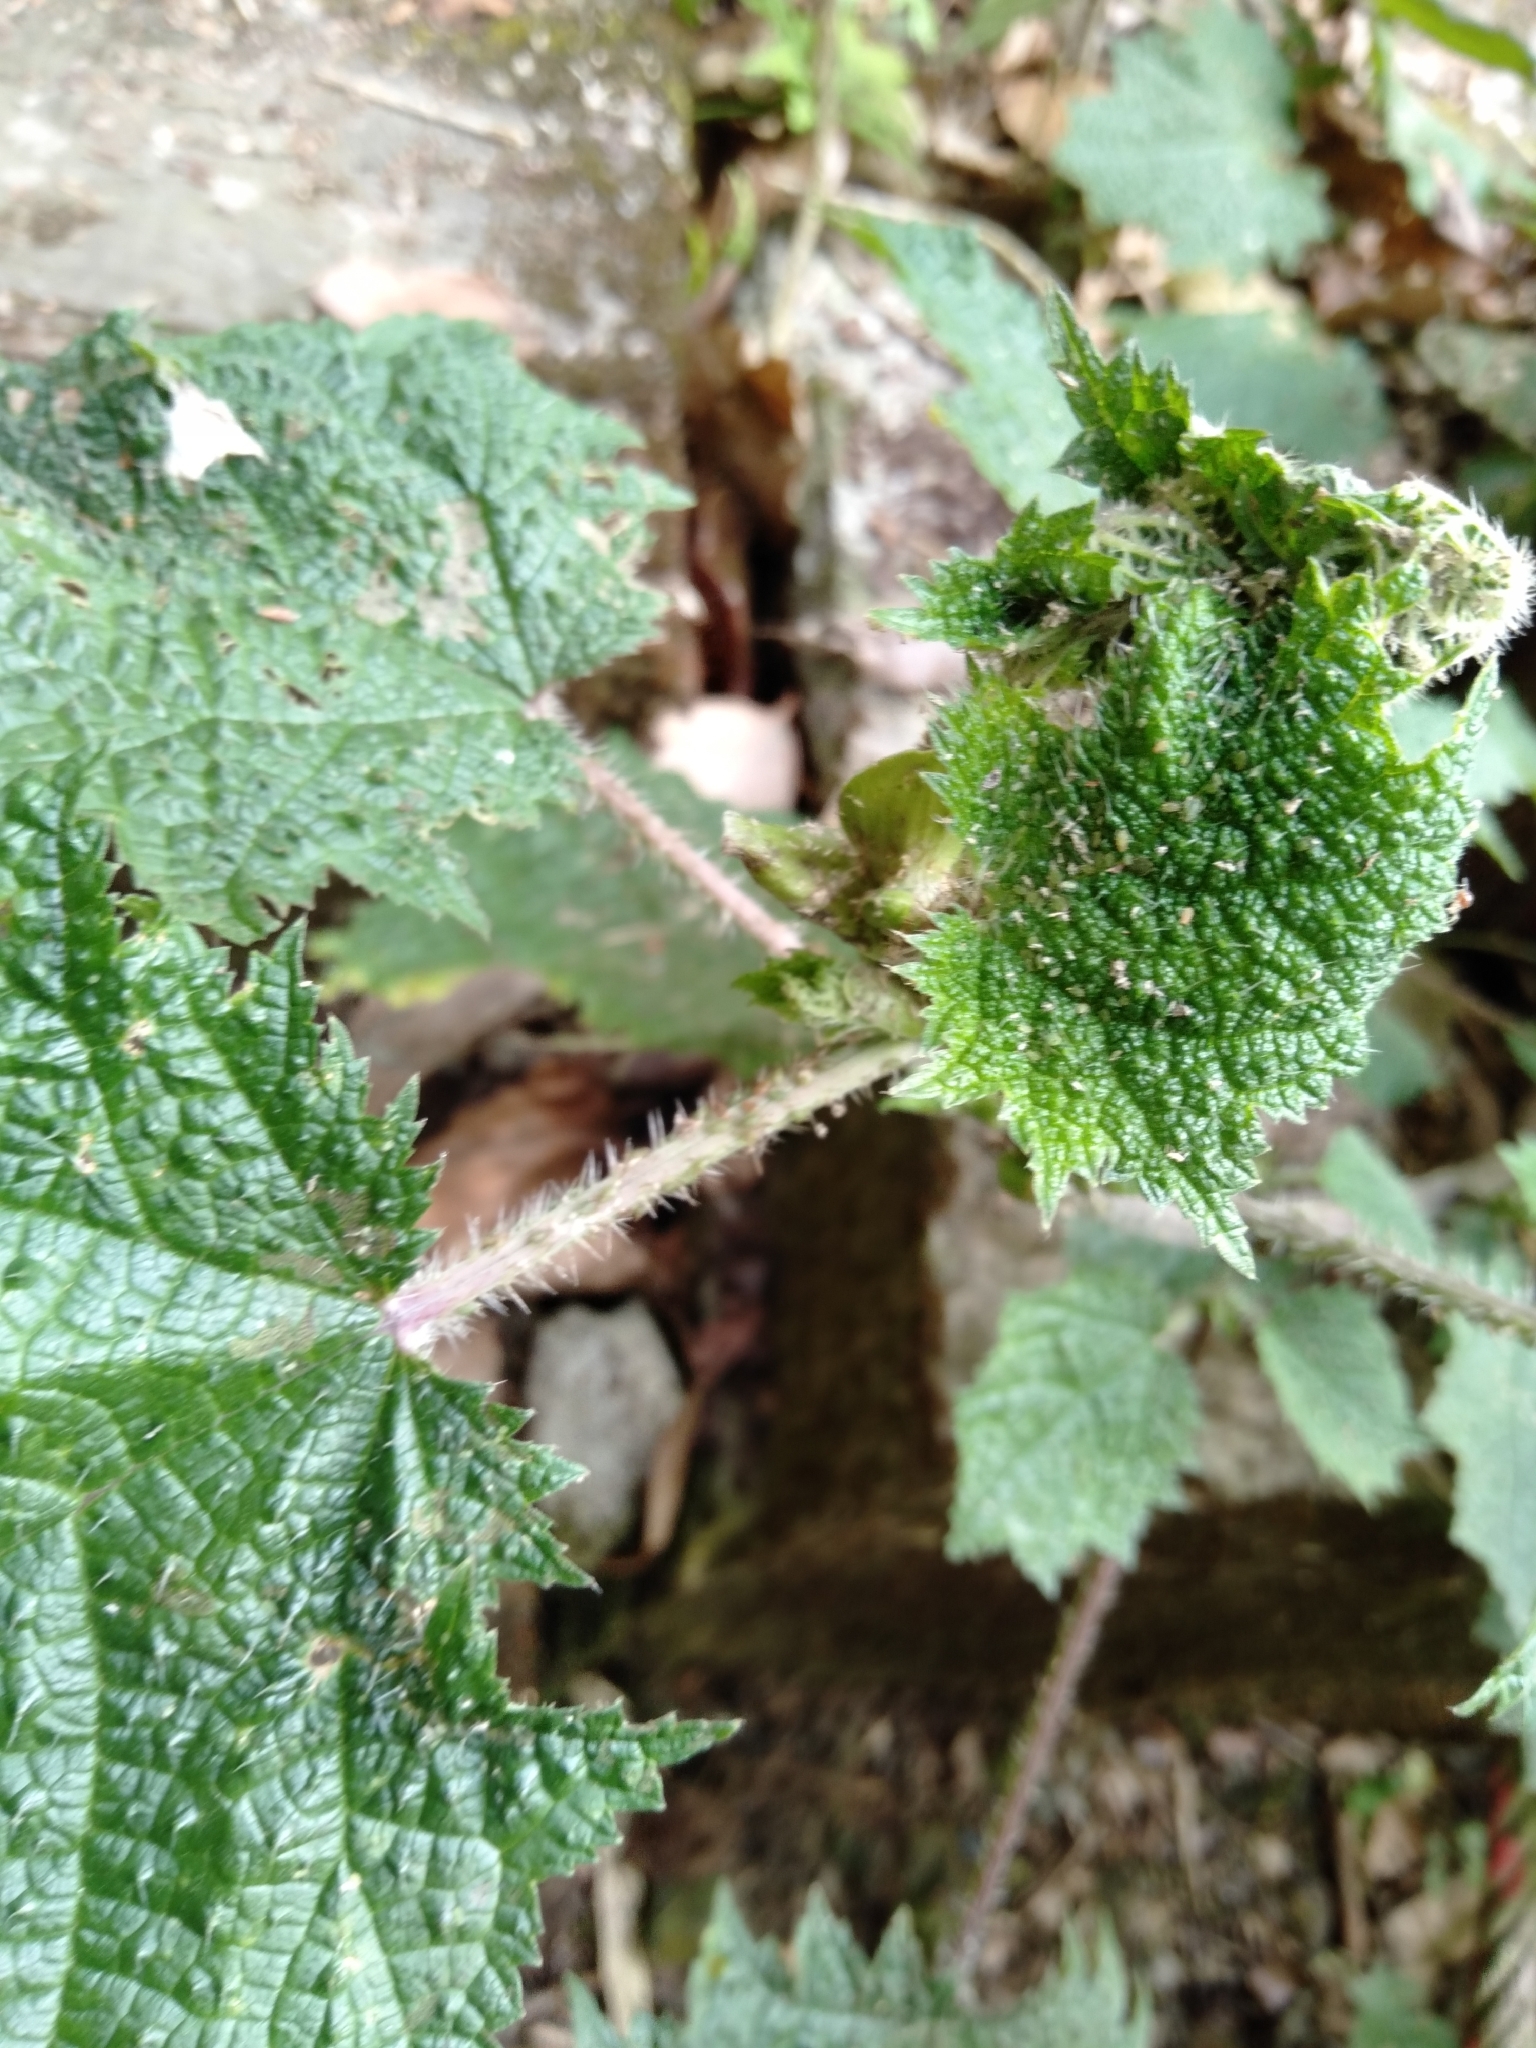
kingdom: Plantae
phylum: Tracheophyta
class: Magnoliopsida
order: Rosales
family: Urticaceae
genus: Urtica
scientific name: Urtica thunbergiana
